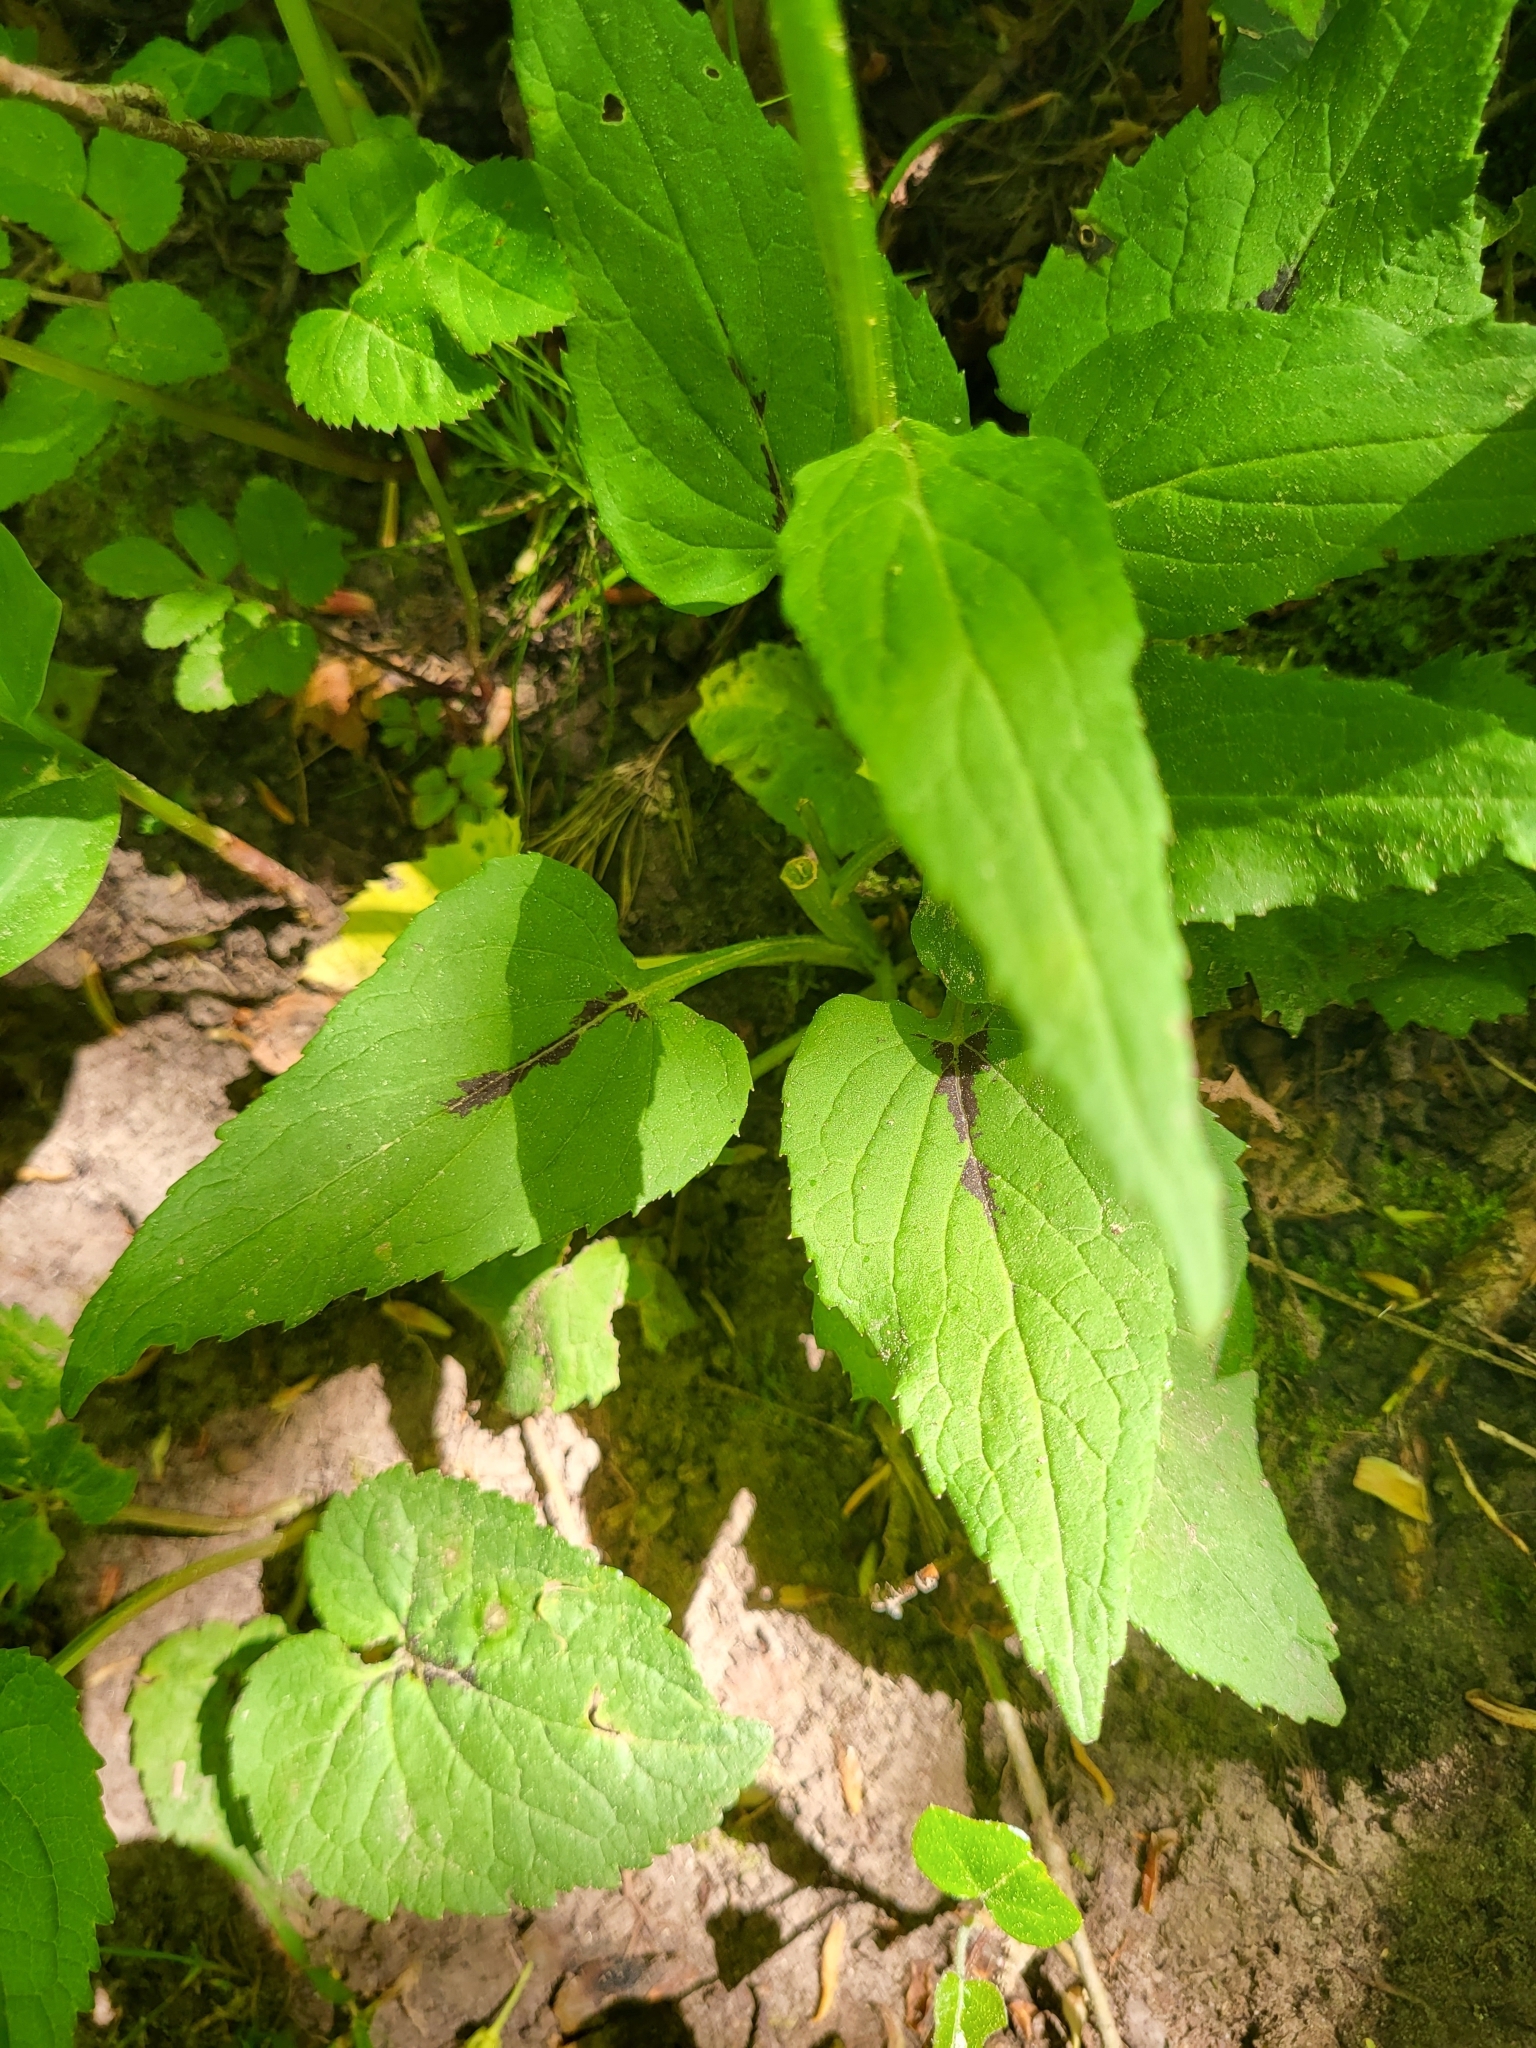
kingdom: Plantae
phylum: Tracheophyta
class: Magnoliopsida
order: Asterales
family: Campanulaceae
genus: Phyteuma
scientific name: Phyteuma spicatum
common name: Spiked rampion
